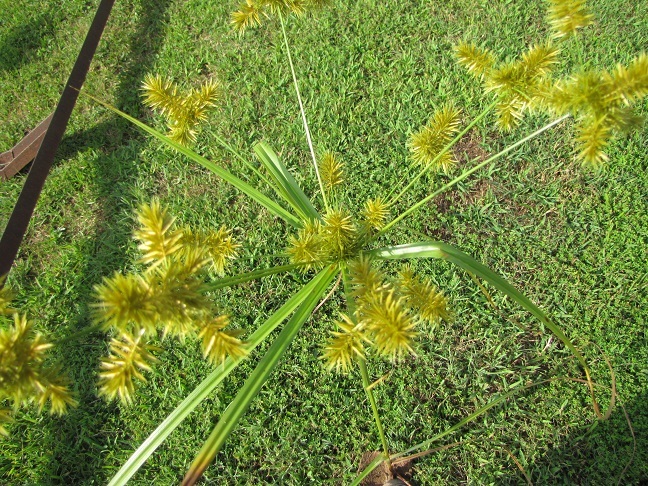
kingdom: Plantae
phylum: Tracheophyta
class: Liliopsida
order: Poales
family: Cyperaceae
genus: Cyperus
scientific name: Cyperus strigosus
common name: False nutsedge
